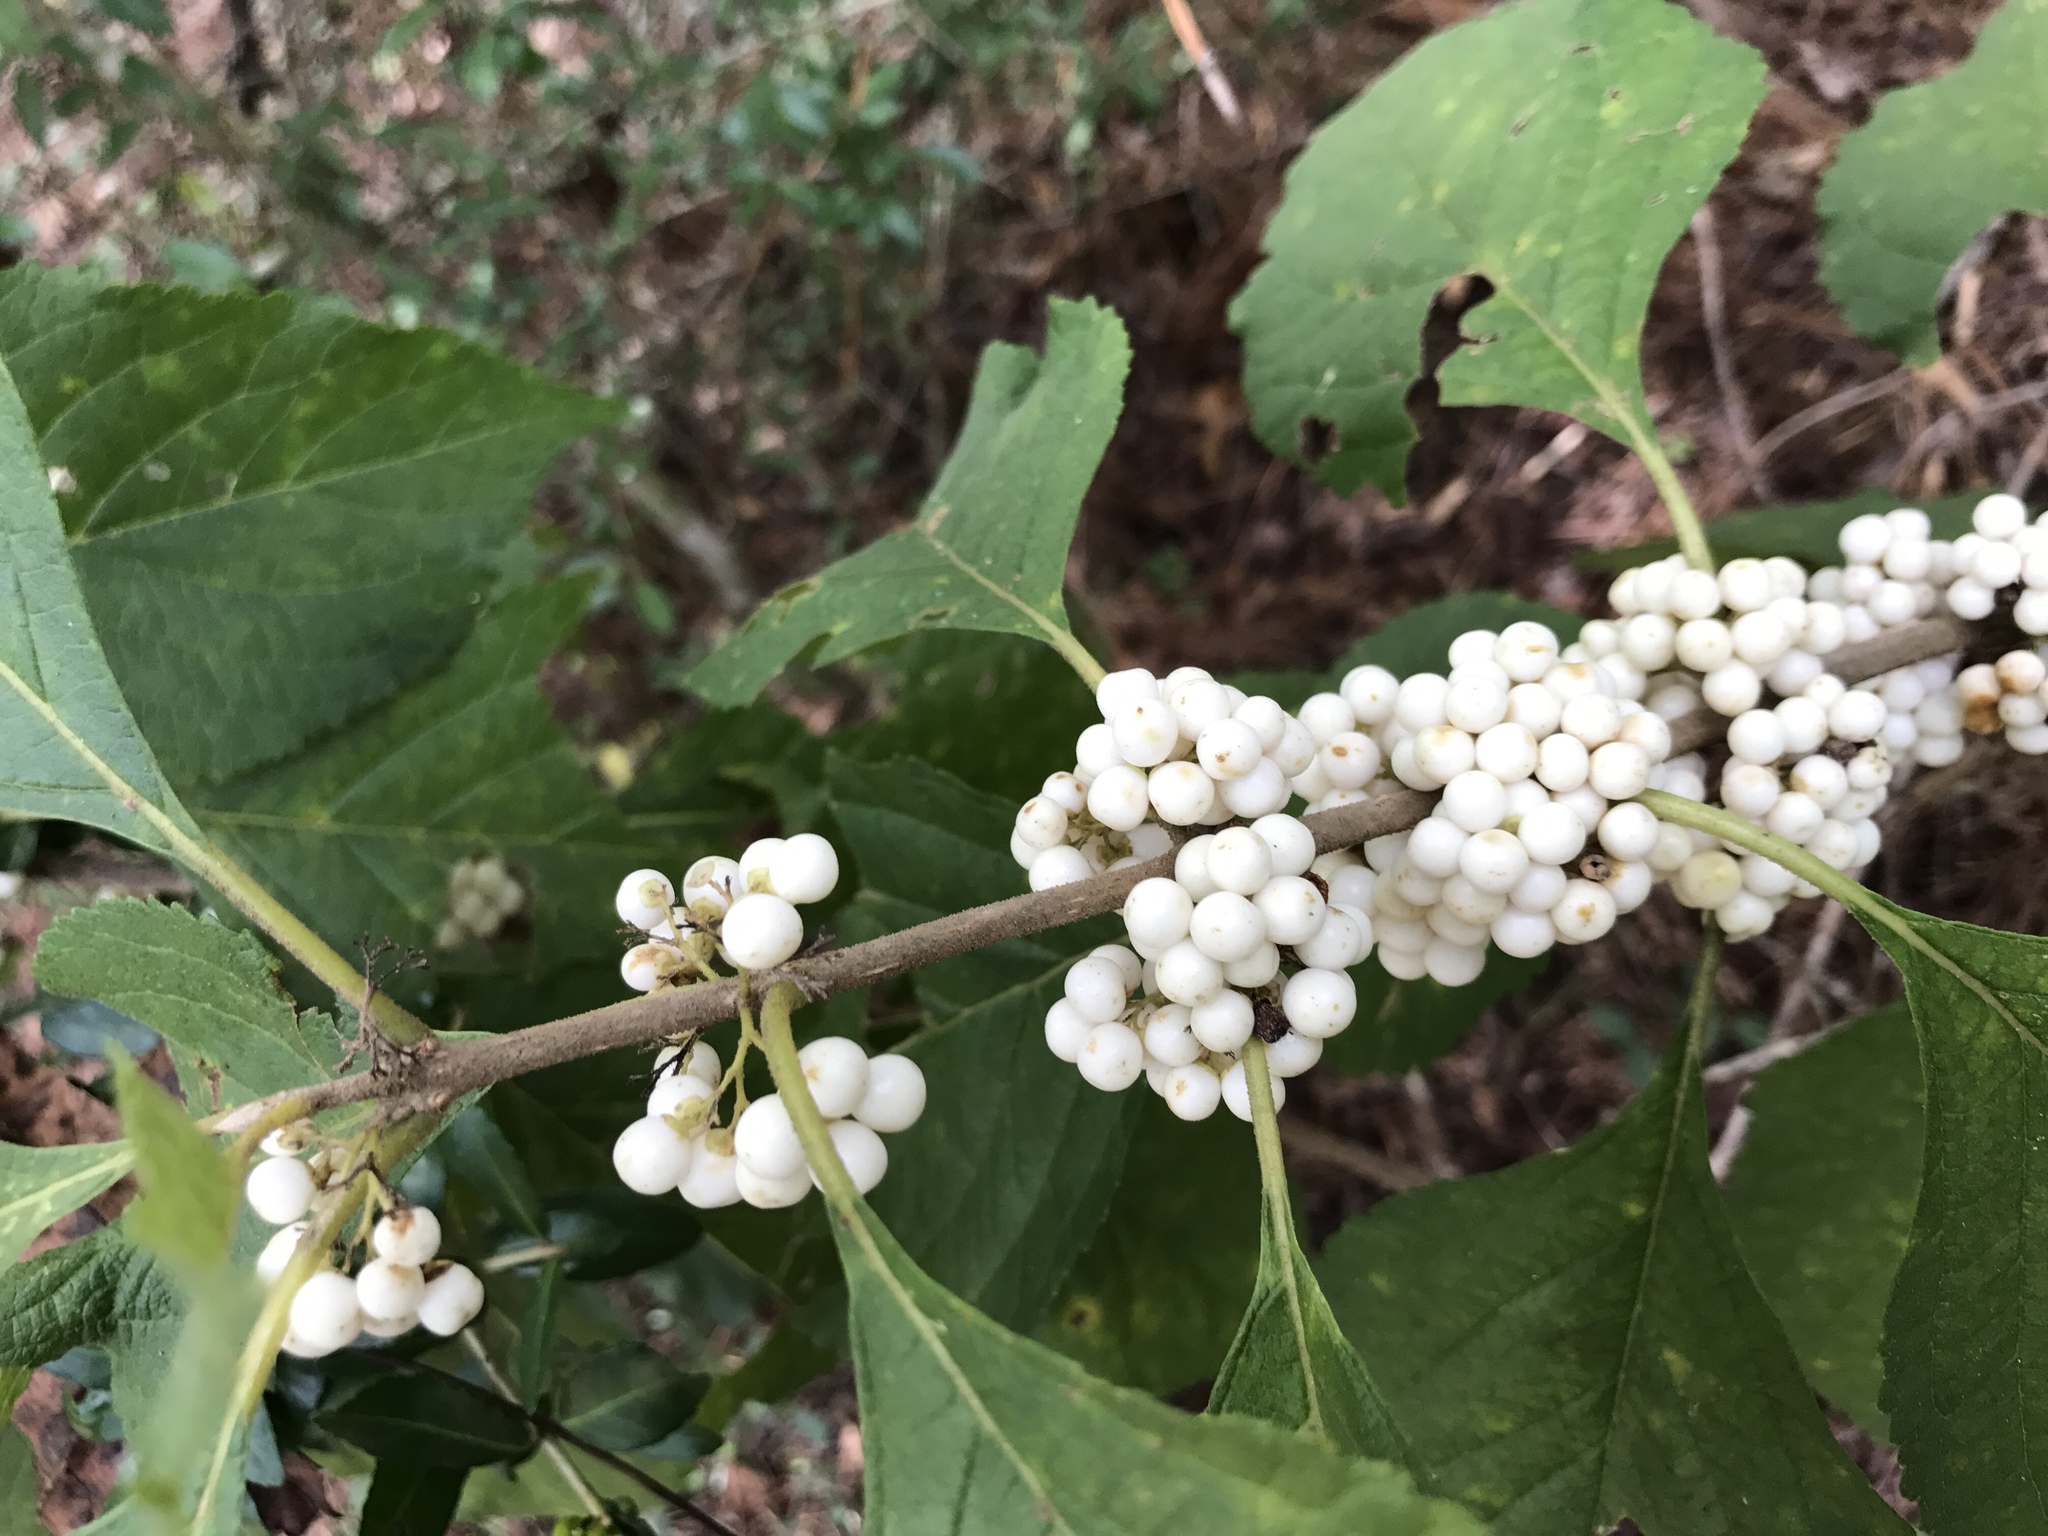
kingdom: Plantae
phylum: Tracheophyta
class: Magnoliopsida
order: Lamiales
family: Lamiaceae
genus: Callicarpa
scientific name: Callicarpa americana
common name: American beautyberry
